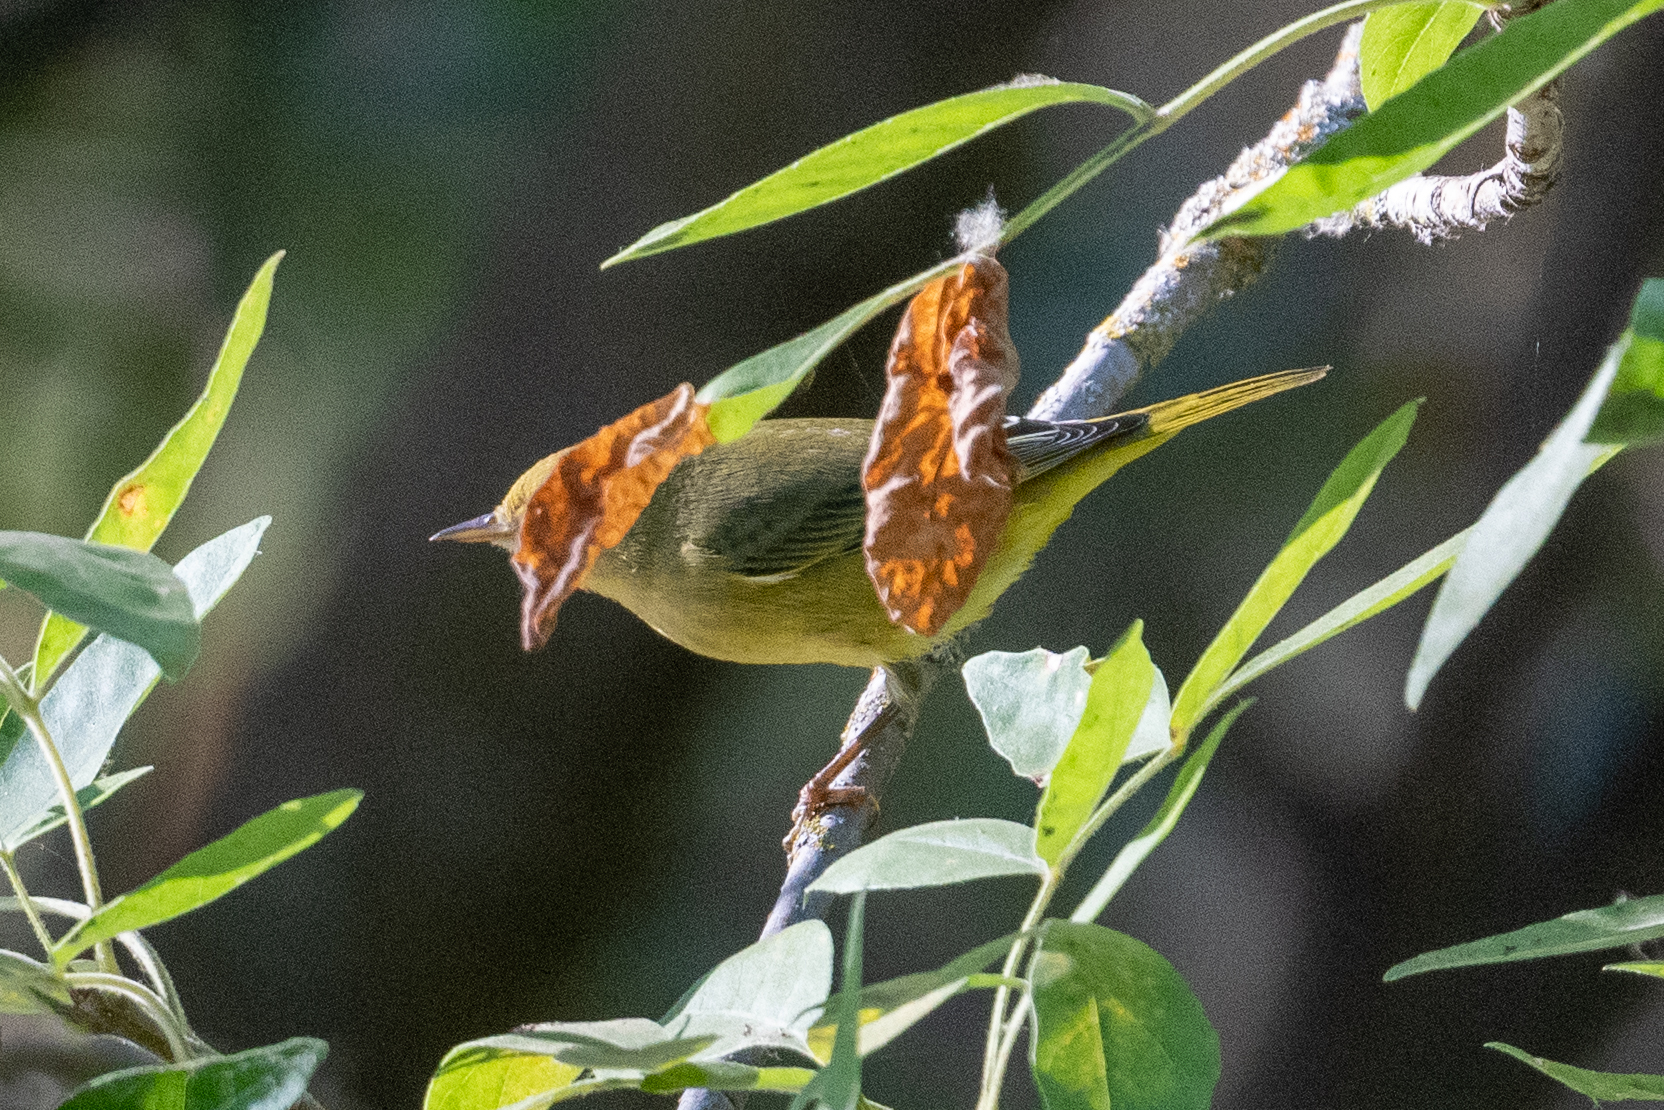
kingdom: Animalia
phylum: Chordata
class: Aves
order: Passeriformes
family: Parulidae
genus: Setophaga
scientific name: Setophaga petechia
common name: Yellow warbler
